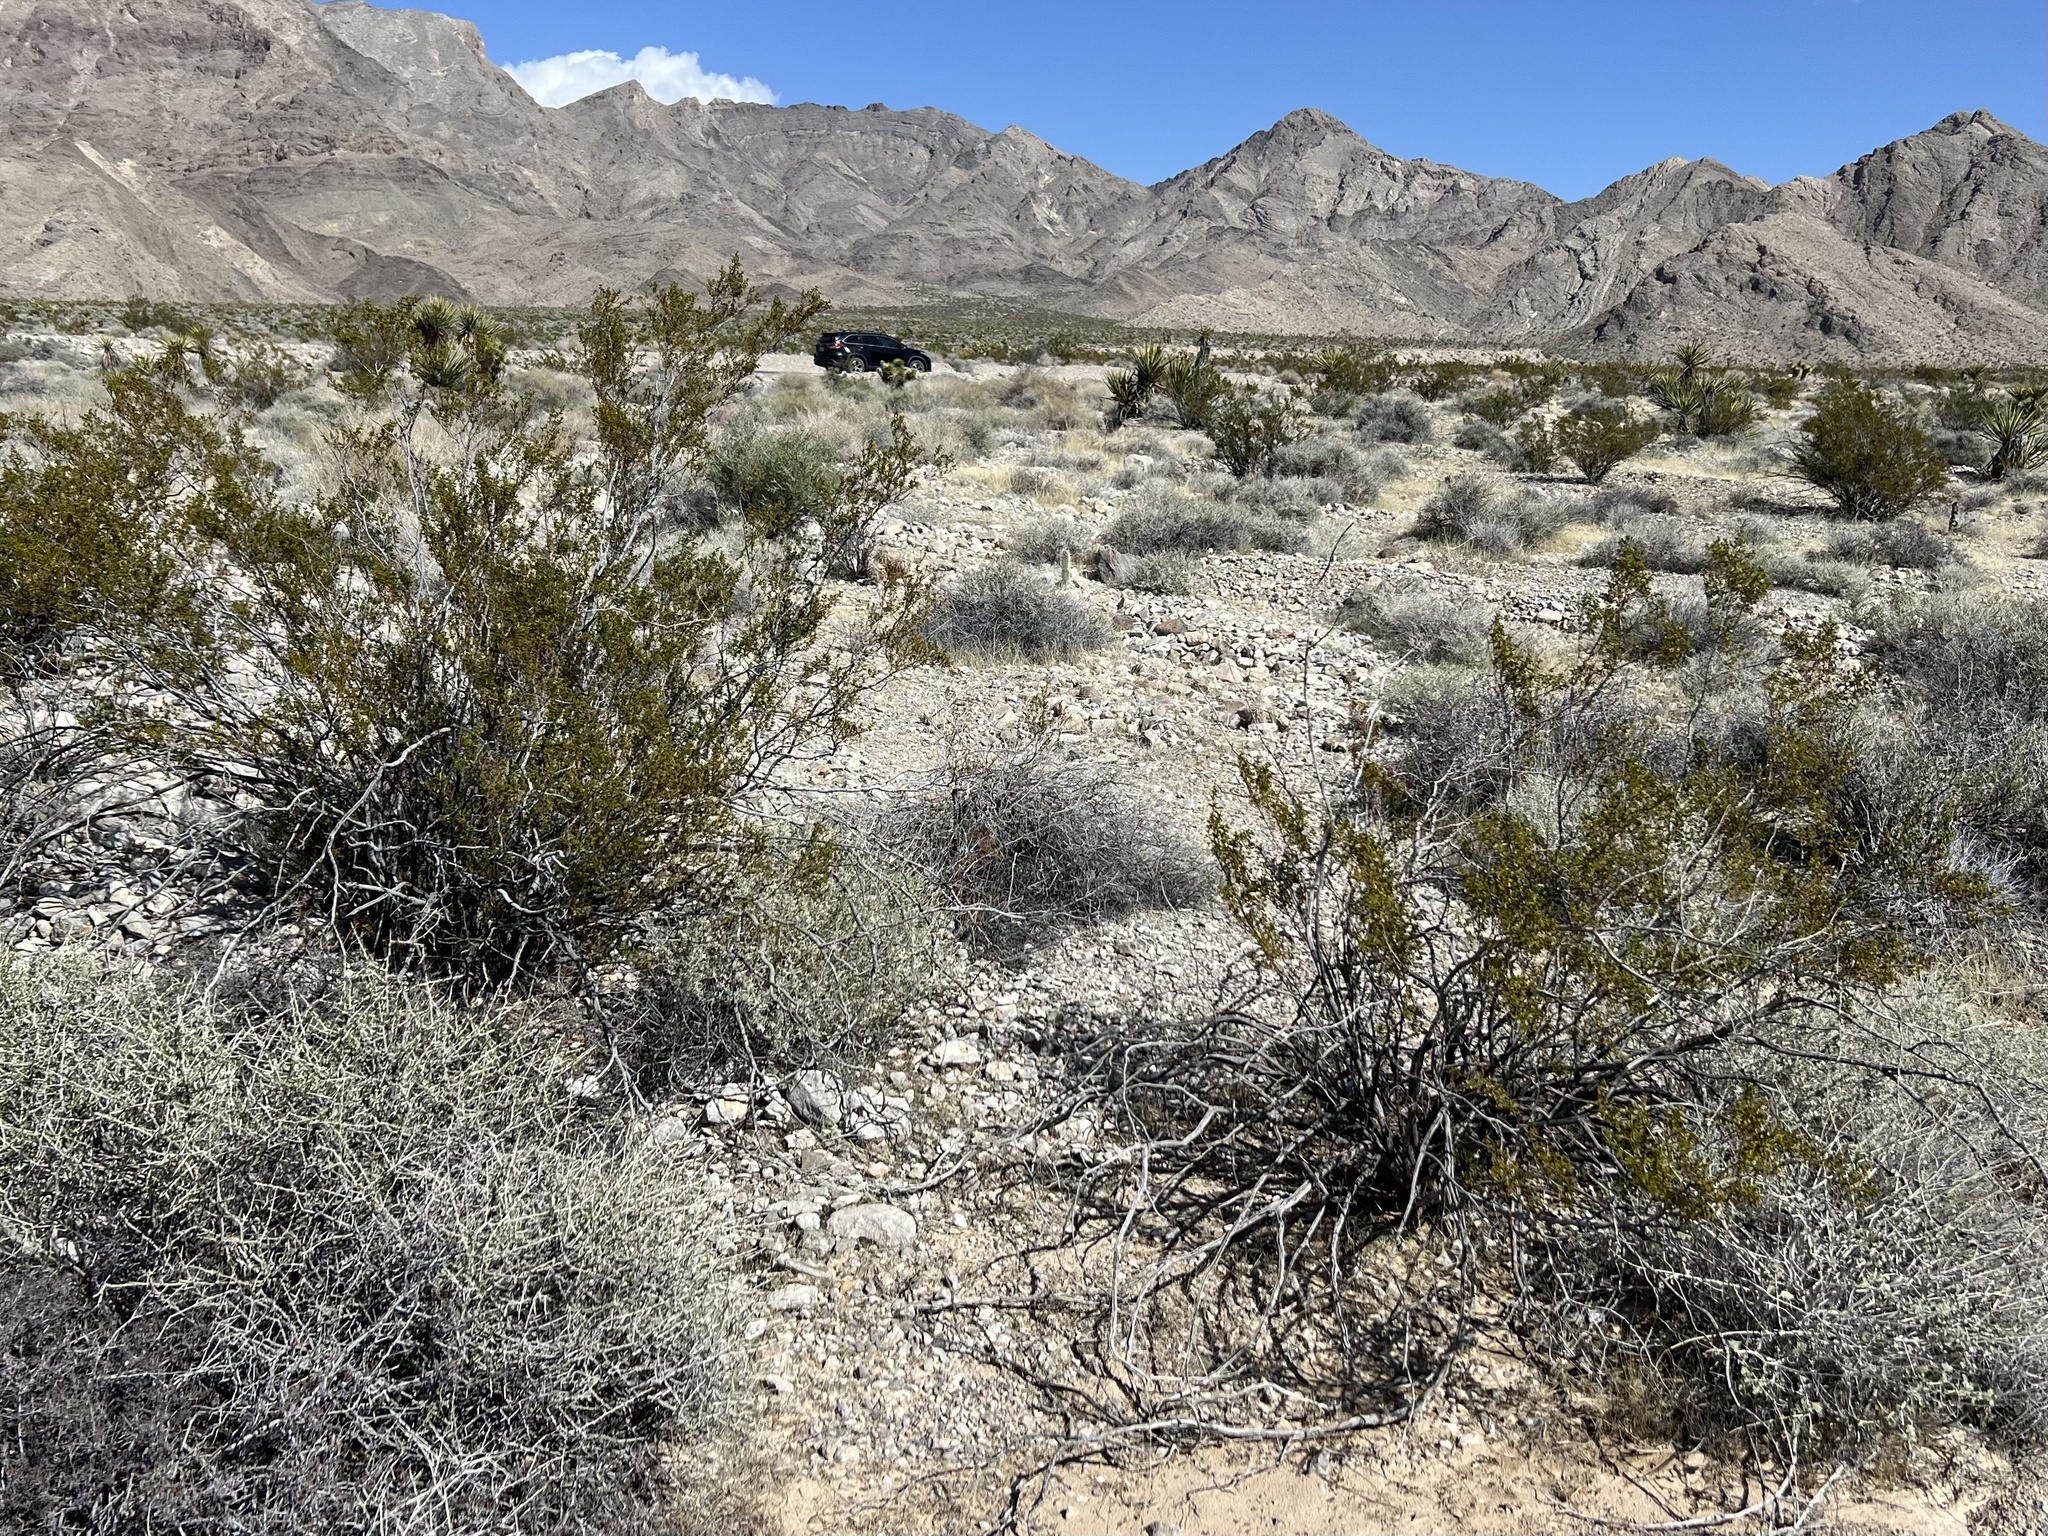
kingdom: Plantae
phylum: Tracheophyta
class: Magnoliopsida
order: Zygophyllales
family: Zygophyllaceae
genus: Larrea
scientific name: Larrea tridentata
